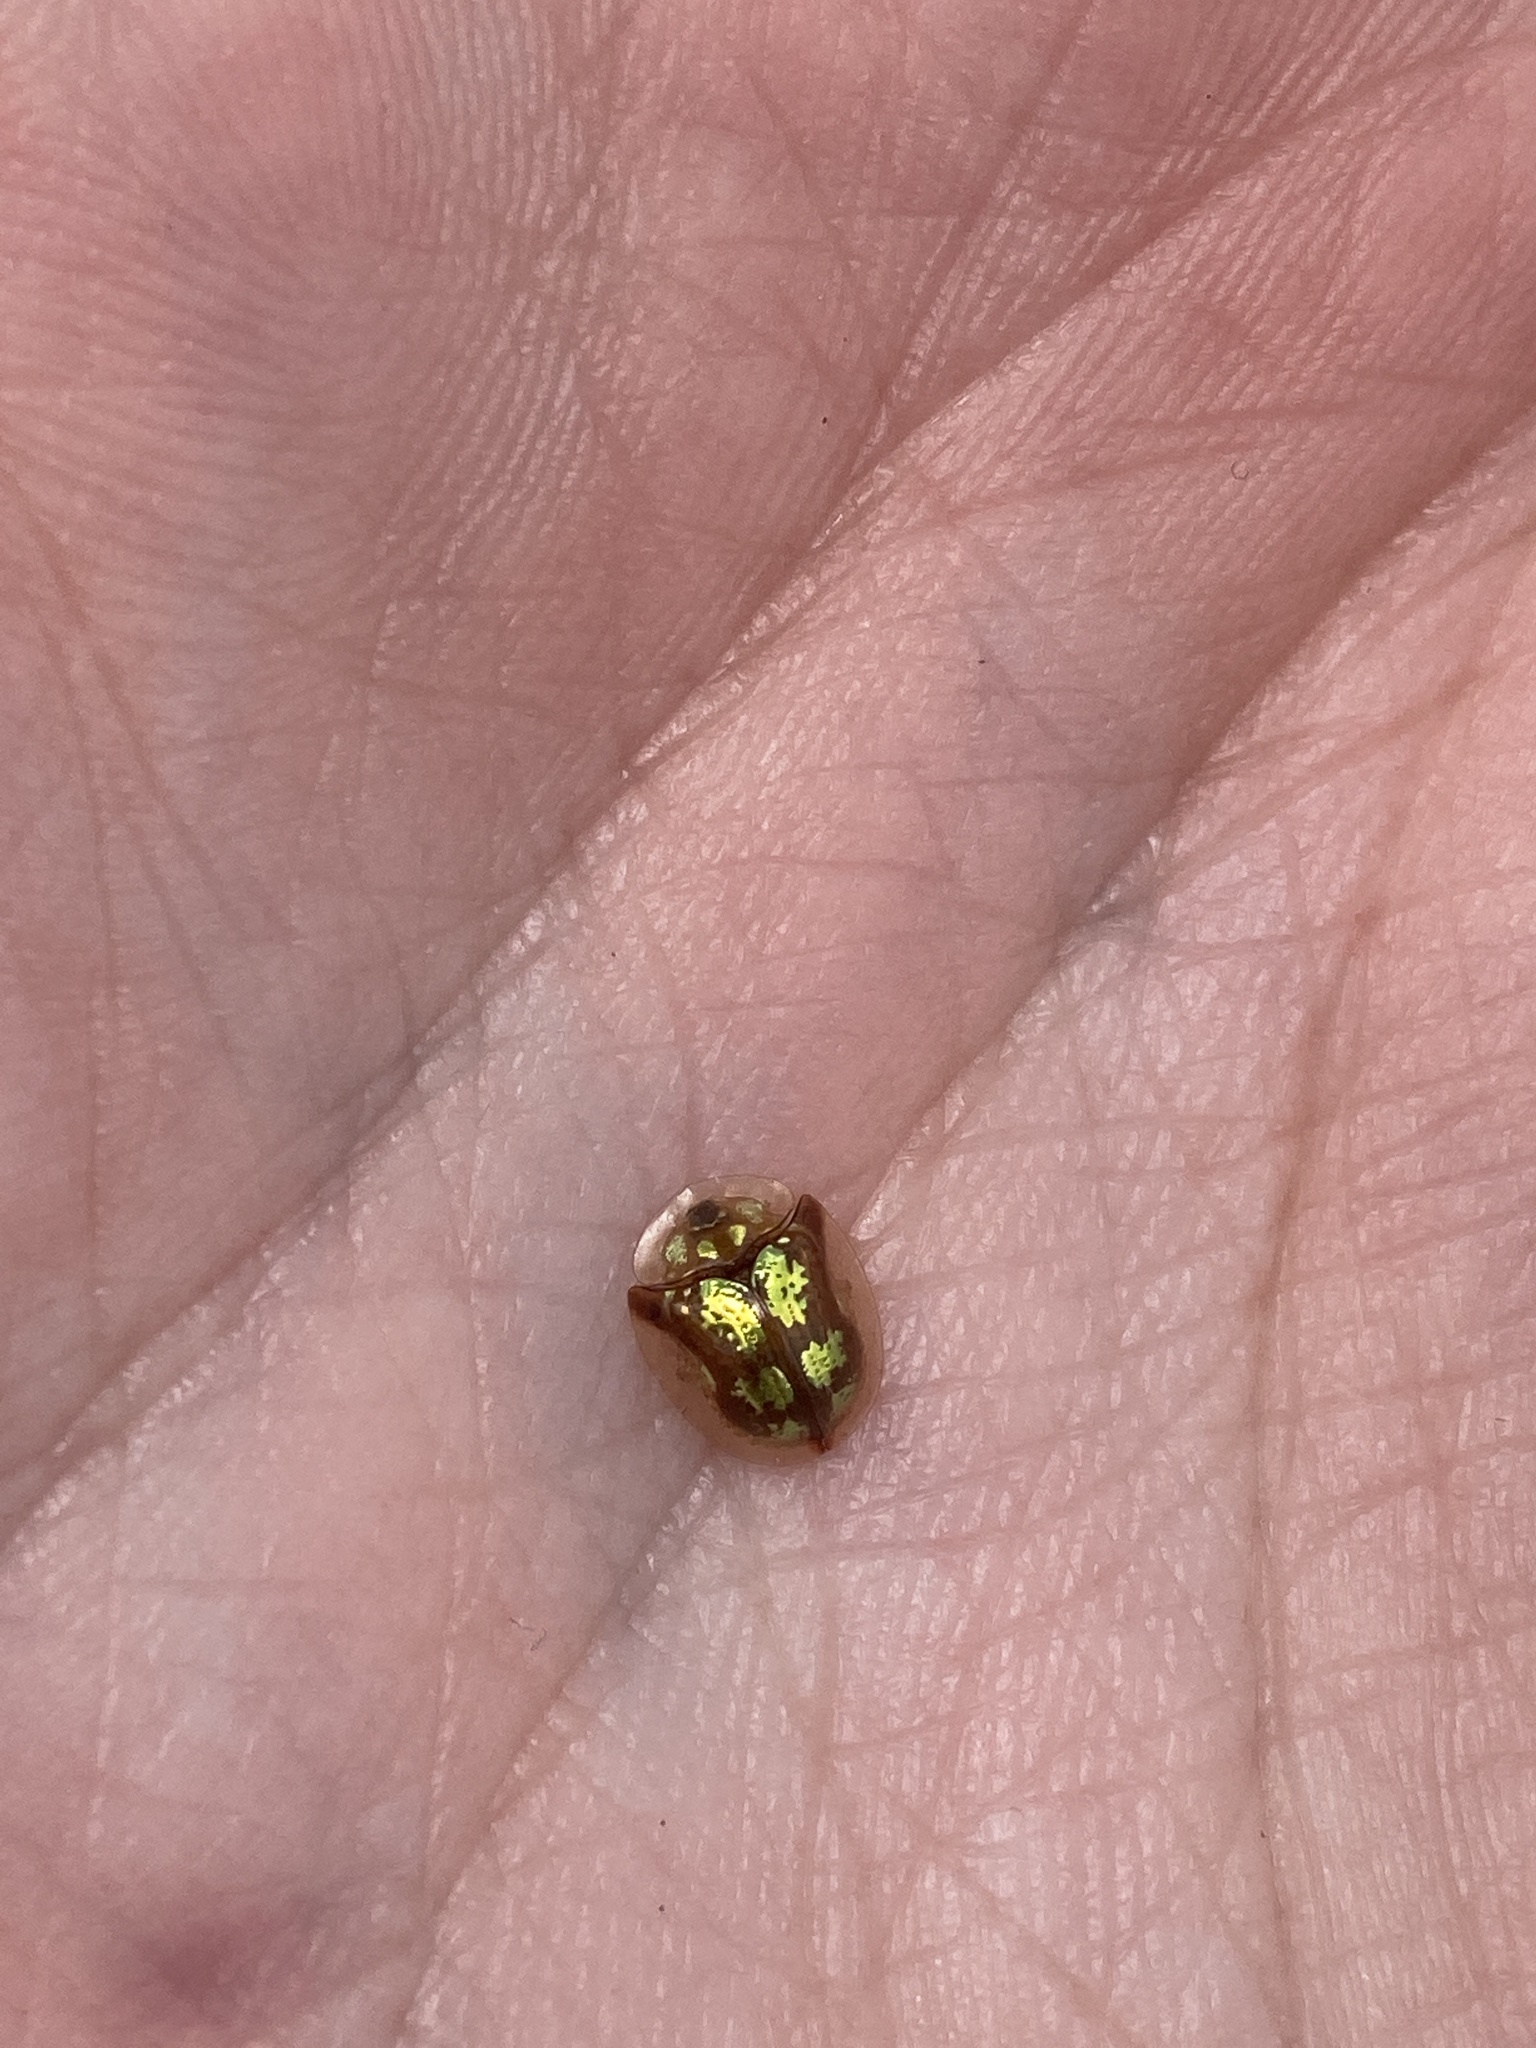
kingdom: Animalia
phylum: Arthropoda
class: Insecta
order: Coleoptera
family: Chrysomelidae
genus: Deloyala
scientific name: Deloyala guttata
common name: Mottled tortoise beetle
